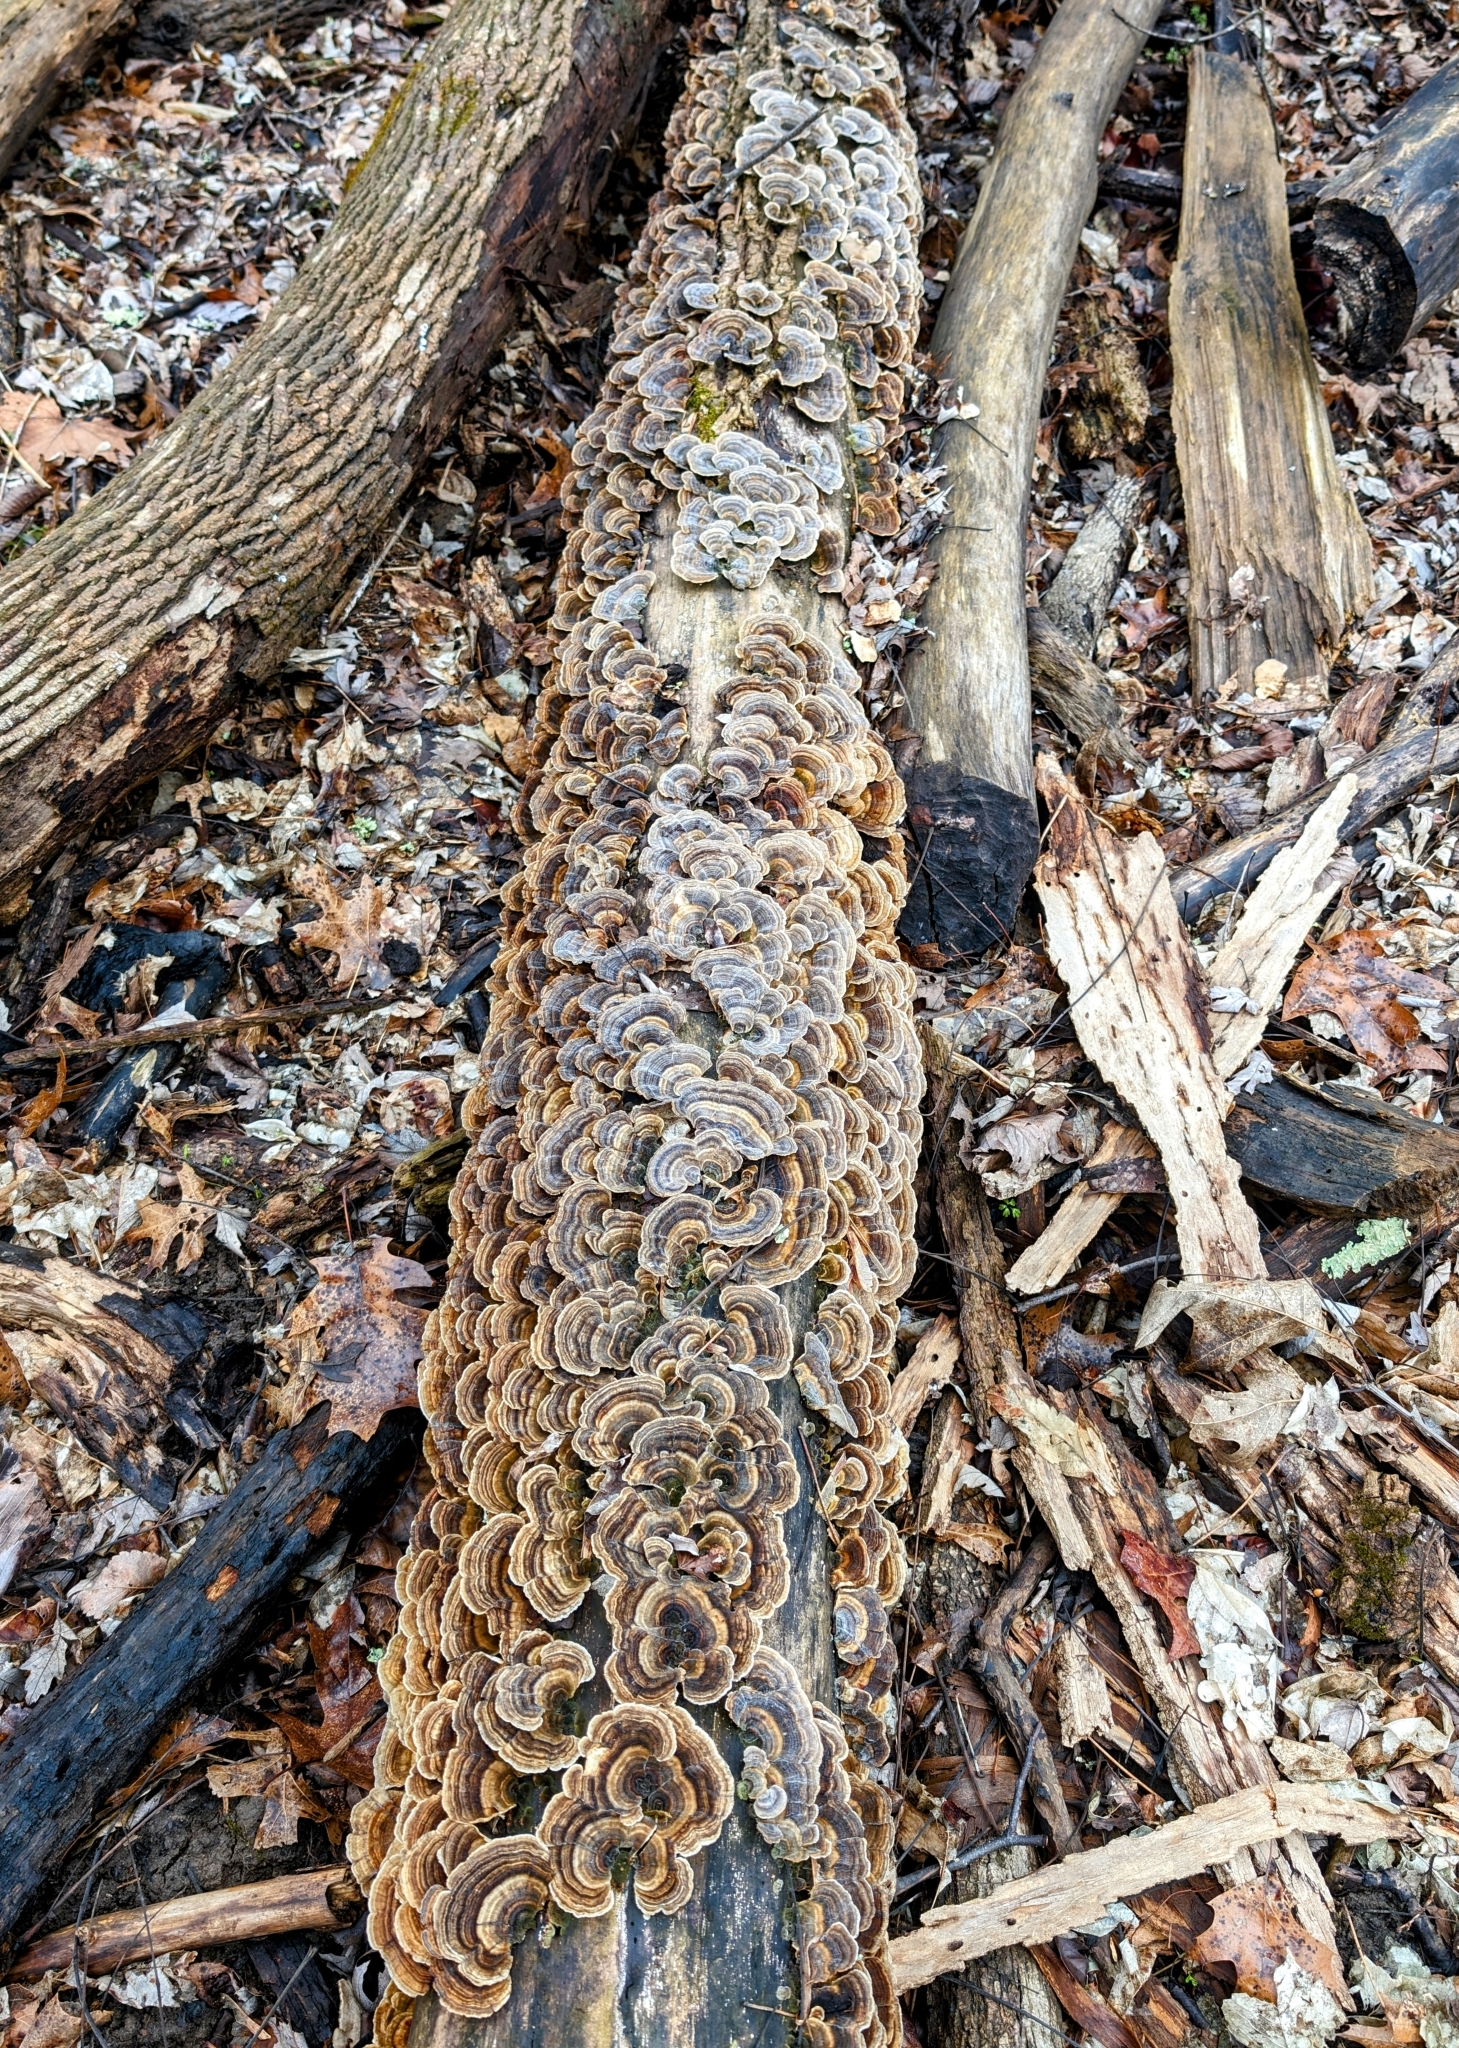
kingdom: Fungi
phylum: Basidiomycota
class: Agaricomycetes
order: Polyporales
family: Polyporaceae
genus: Trametes
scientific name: Trametes versicolor
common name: Turkeytail
